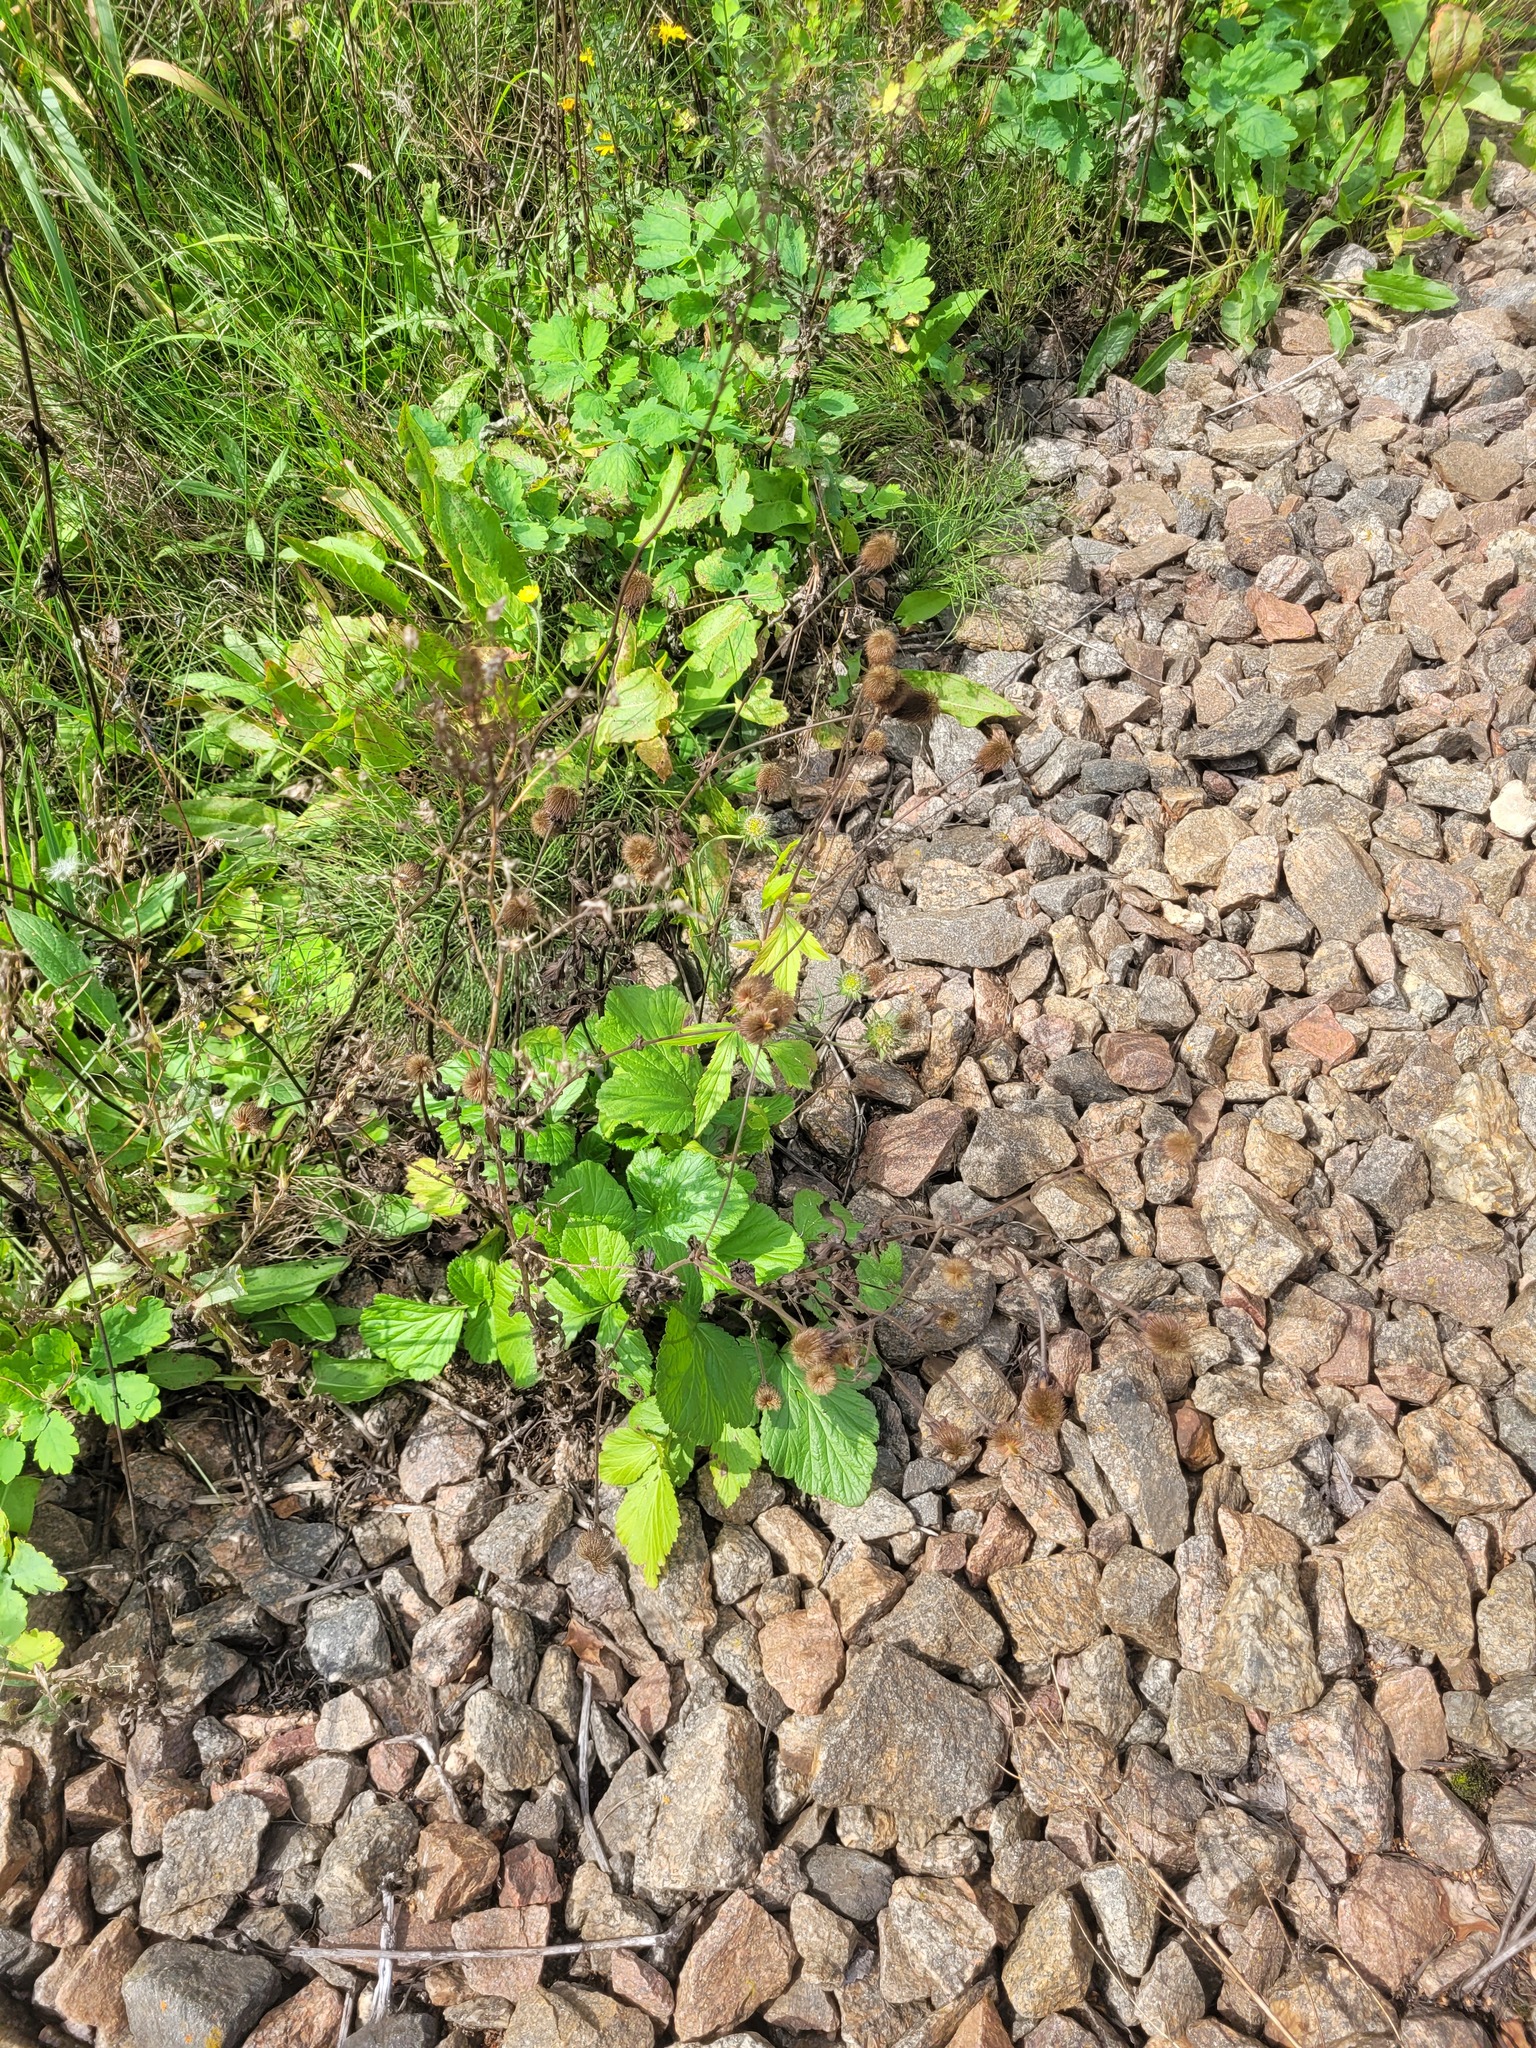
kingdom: Plantae
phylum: Tracheophyta
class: Magnoliopsida
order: Rosales
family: Rosaceae
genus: Geum
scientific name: Geum aleppicum
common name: Yellow avens
